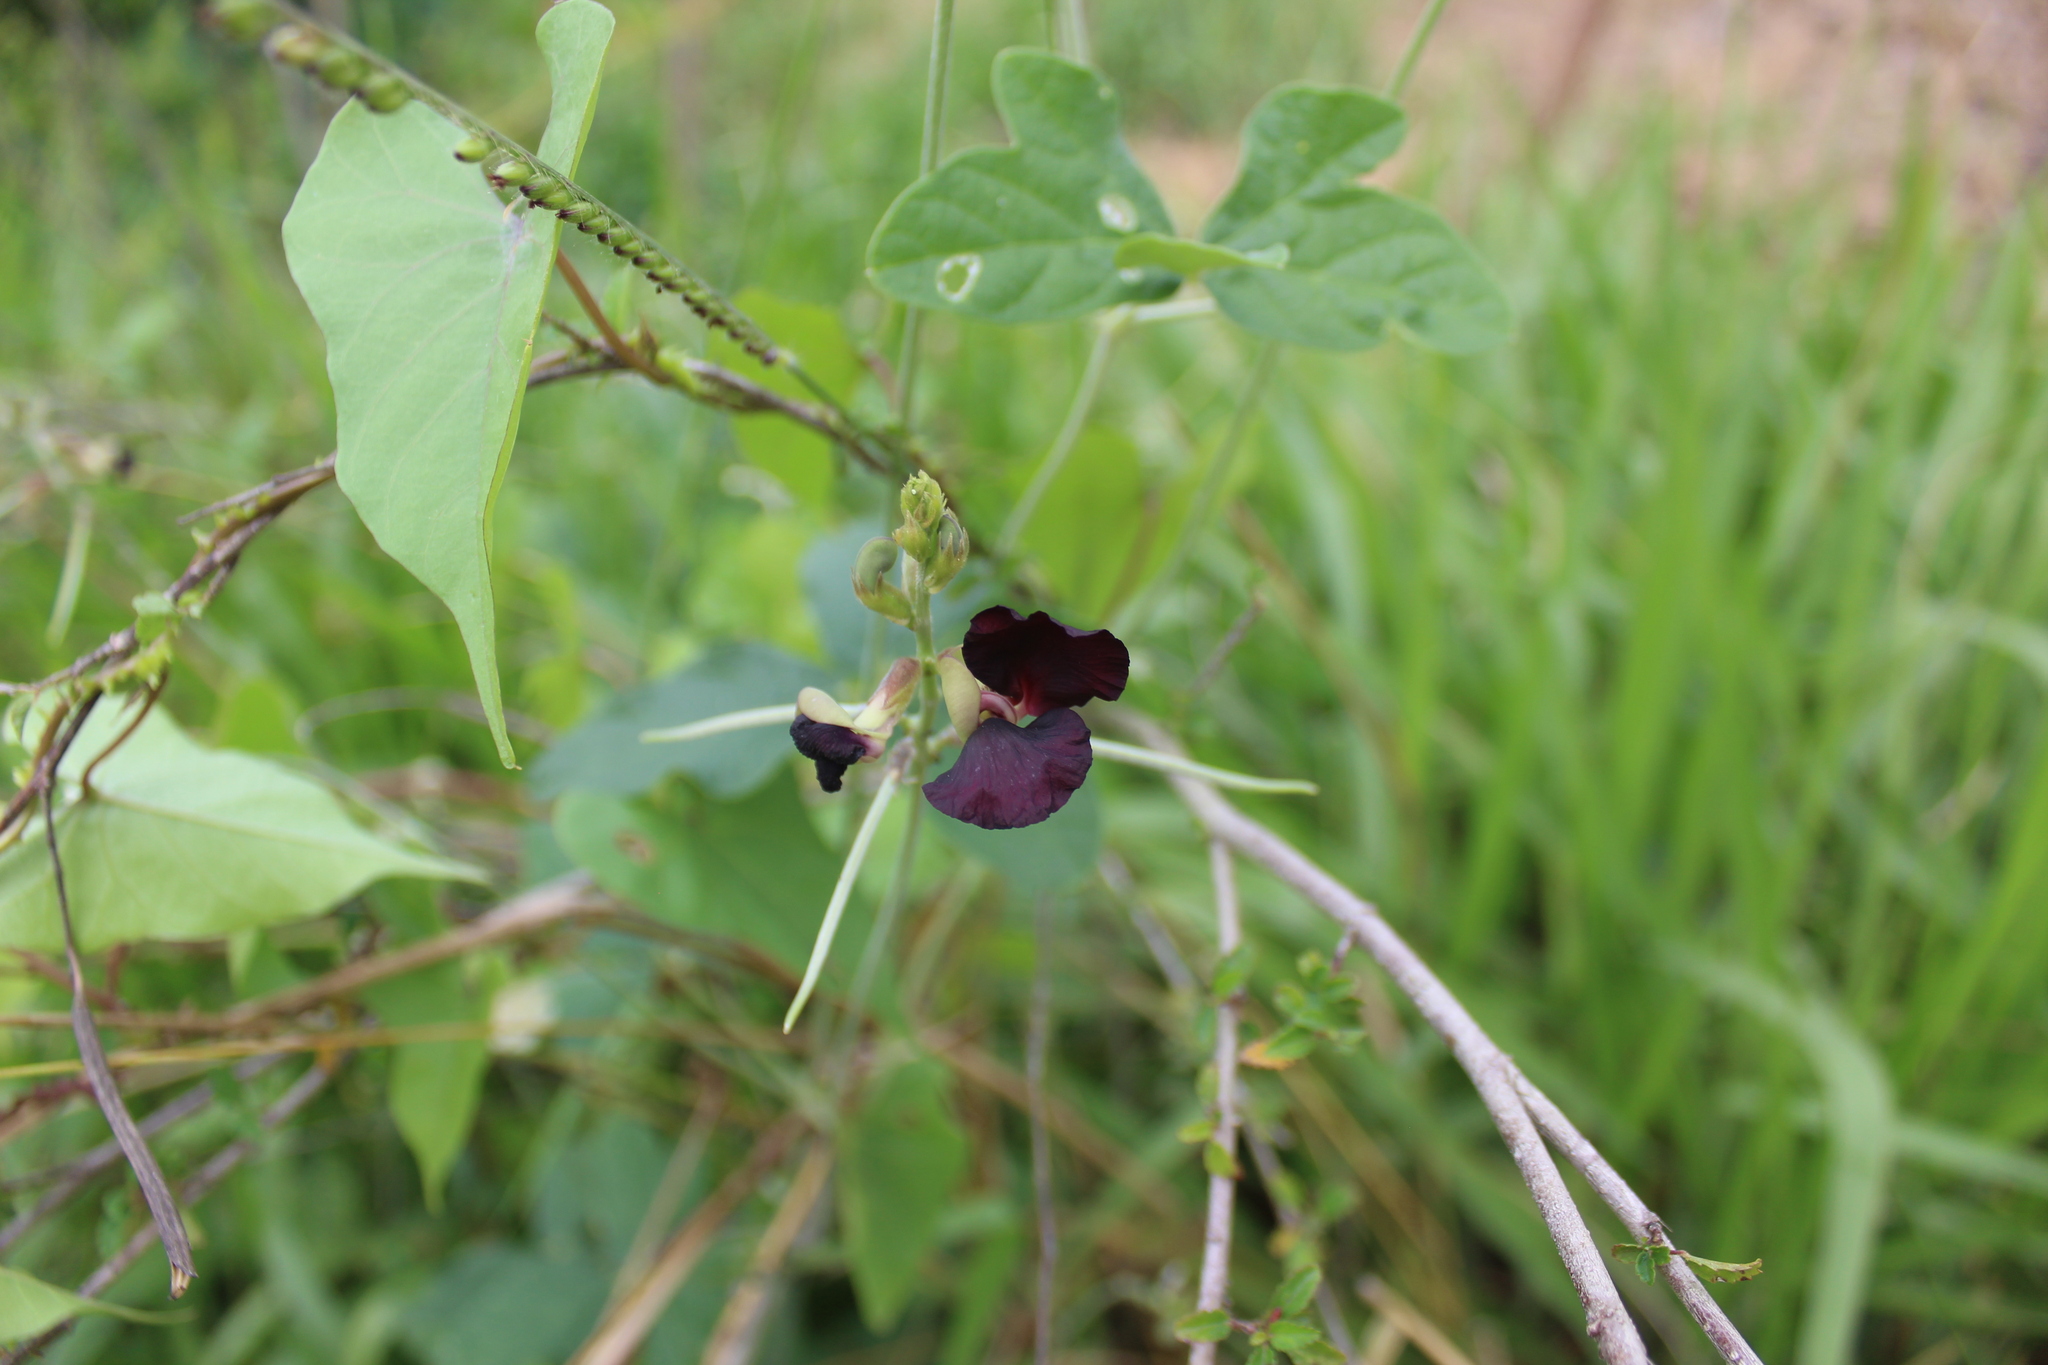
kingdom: Plantae
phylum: Tracheophyta
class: Magnoliopsida
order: Fabales
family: Fabaceae
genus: Macroptilium
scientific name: Macroptilium atropurpureum
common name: Purple bushbean
